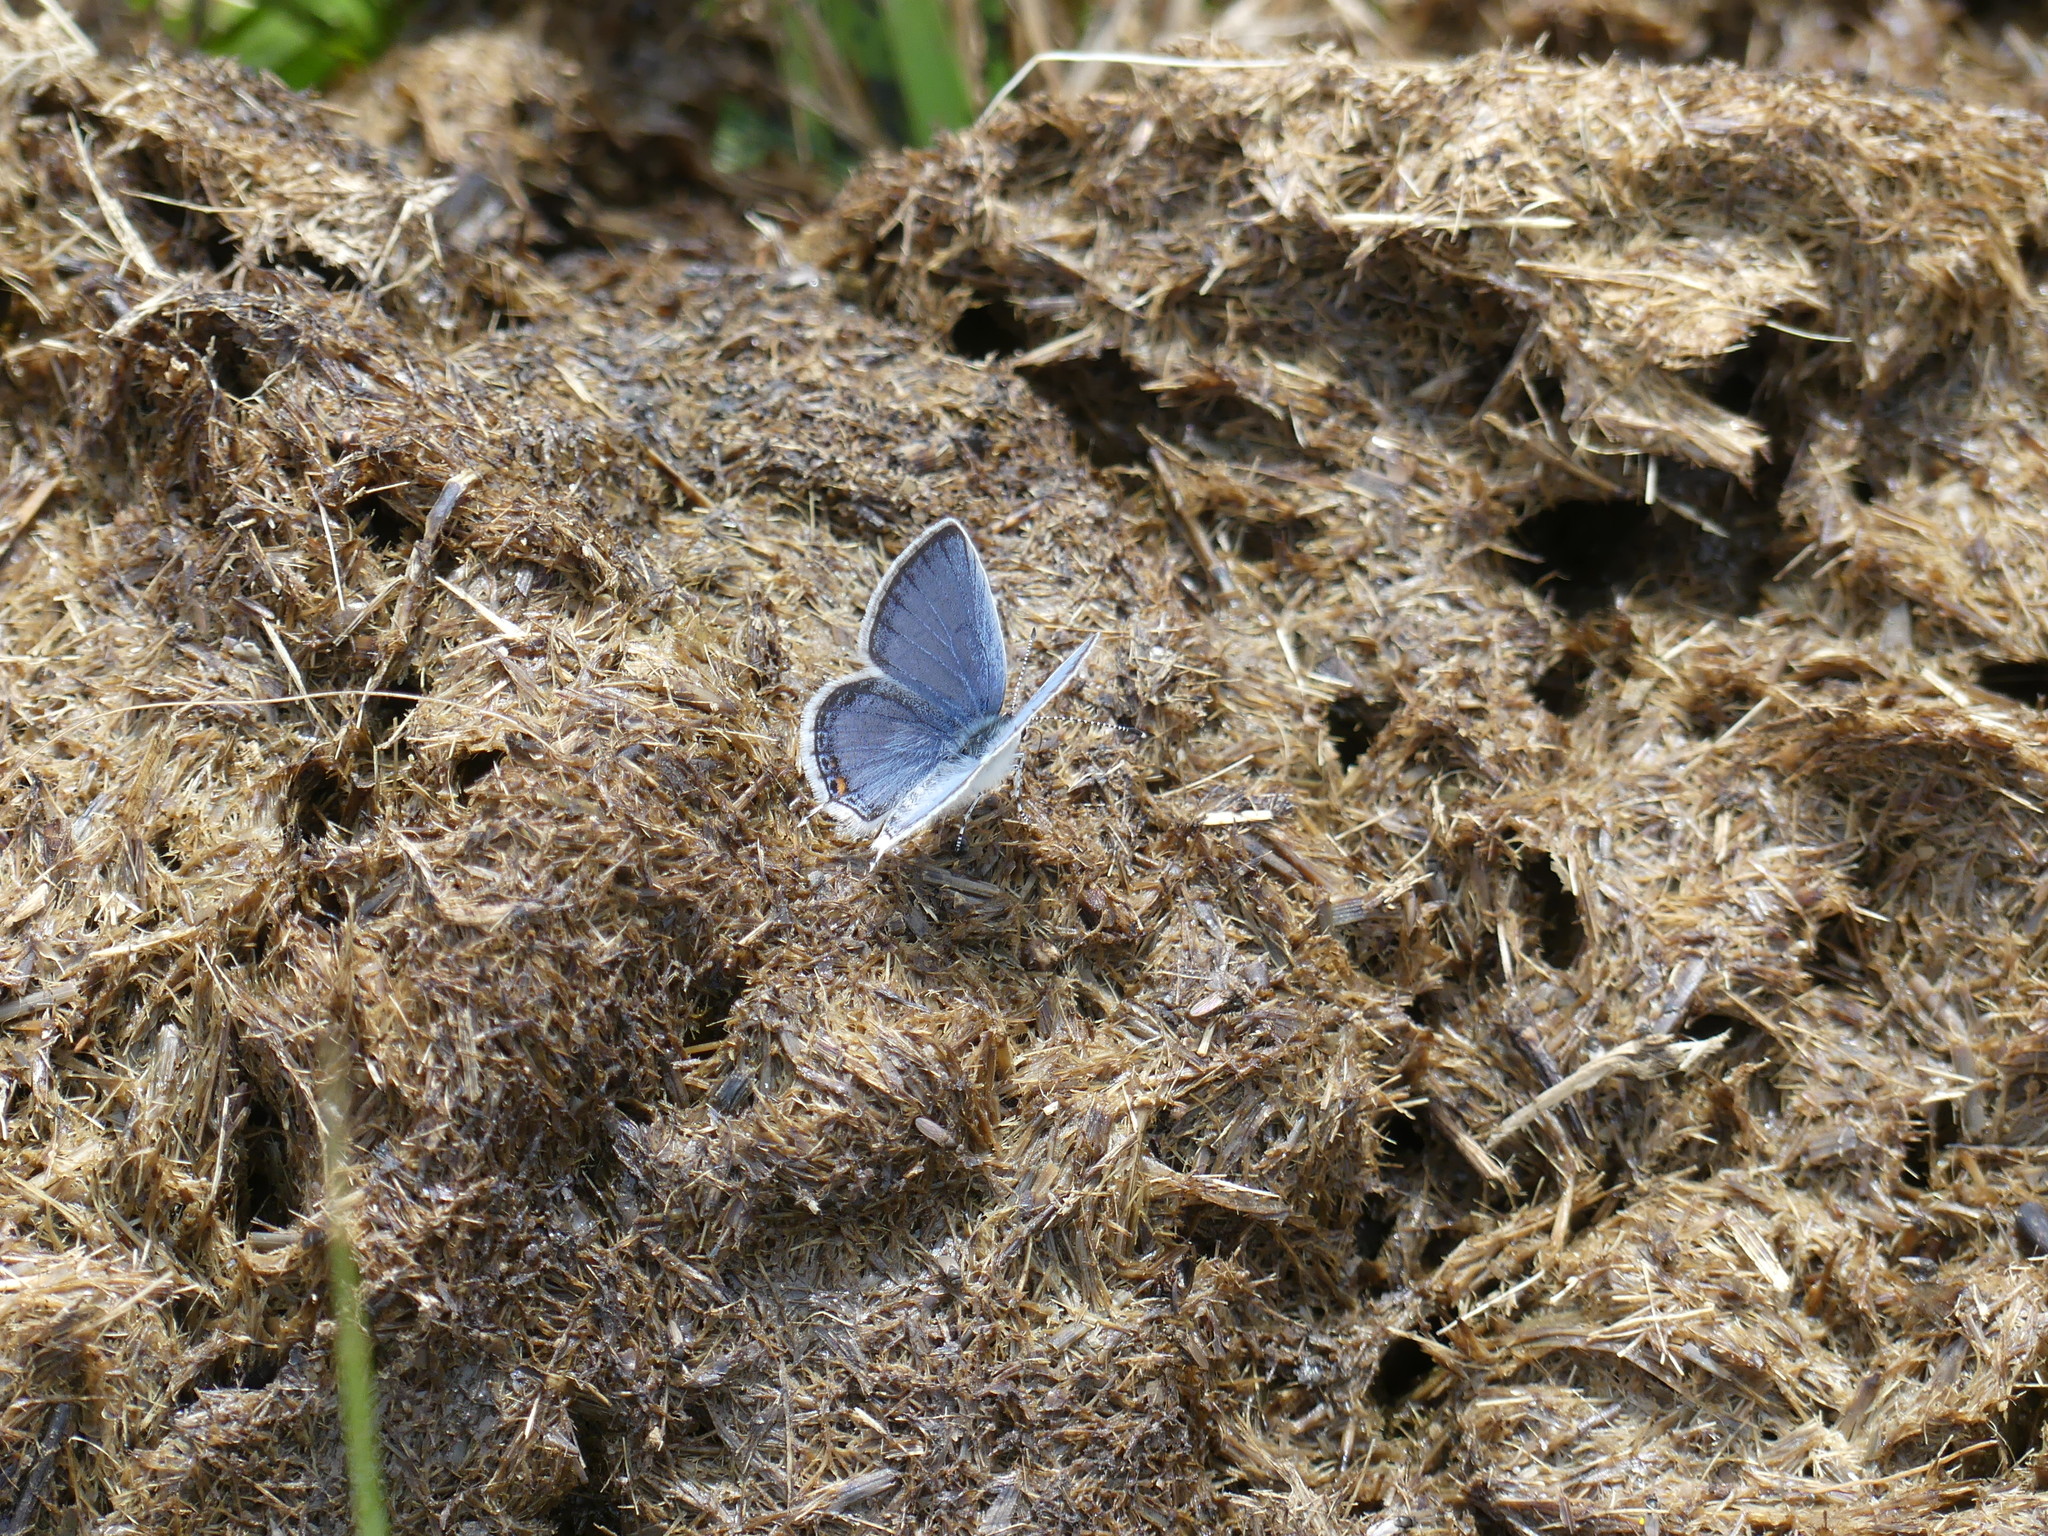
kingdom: Animalia
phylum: Arthropoda
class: Insecta
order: Lepidoptera
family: Lycaenidae
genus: Elkalyce
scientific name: Elkalyce comyntas
